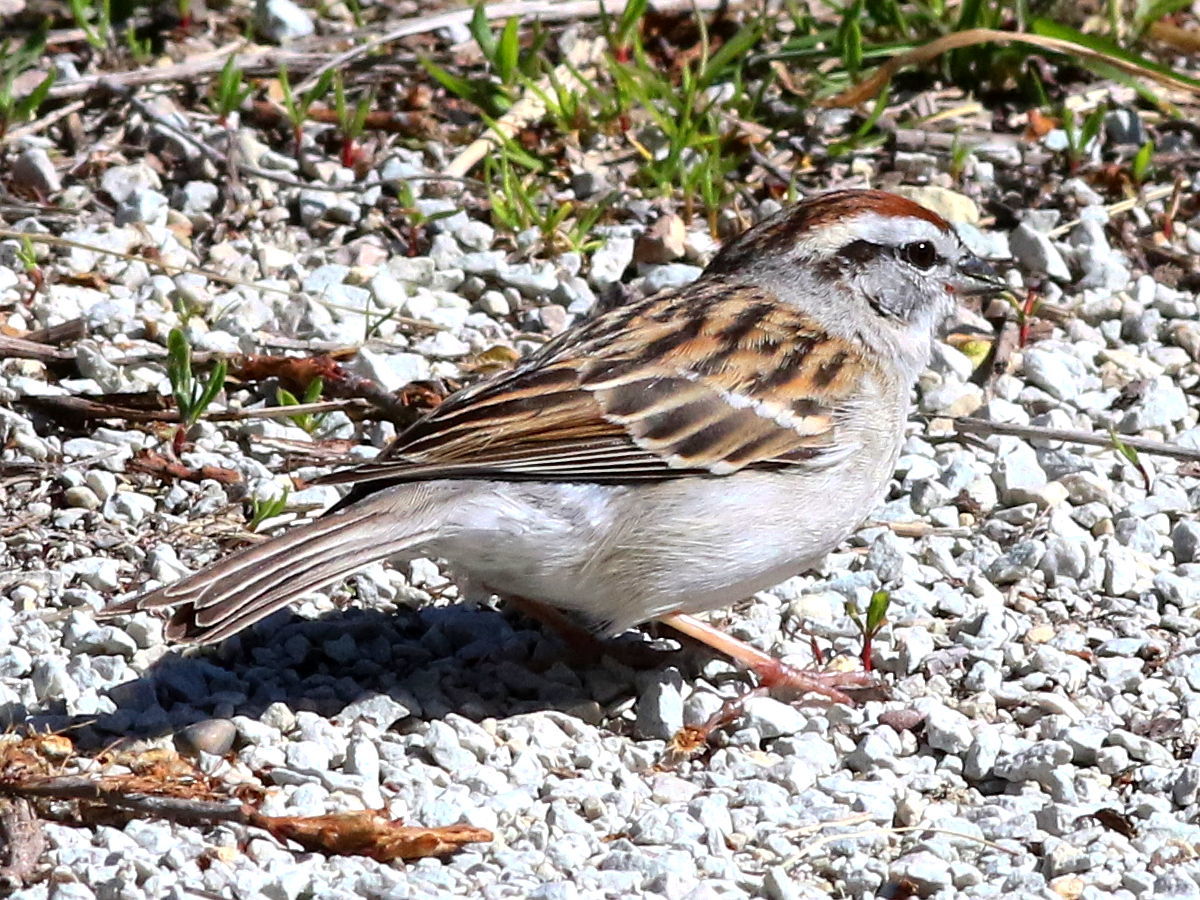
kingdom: Animalia
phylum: Chordata
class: Aves
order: Passeriformes
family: Passerellidae
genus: Spizella
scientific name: Spizella passerina
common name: Chipping sparrow
